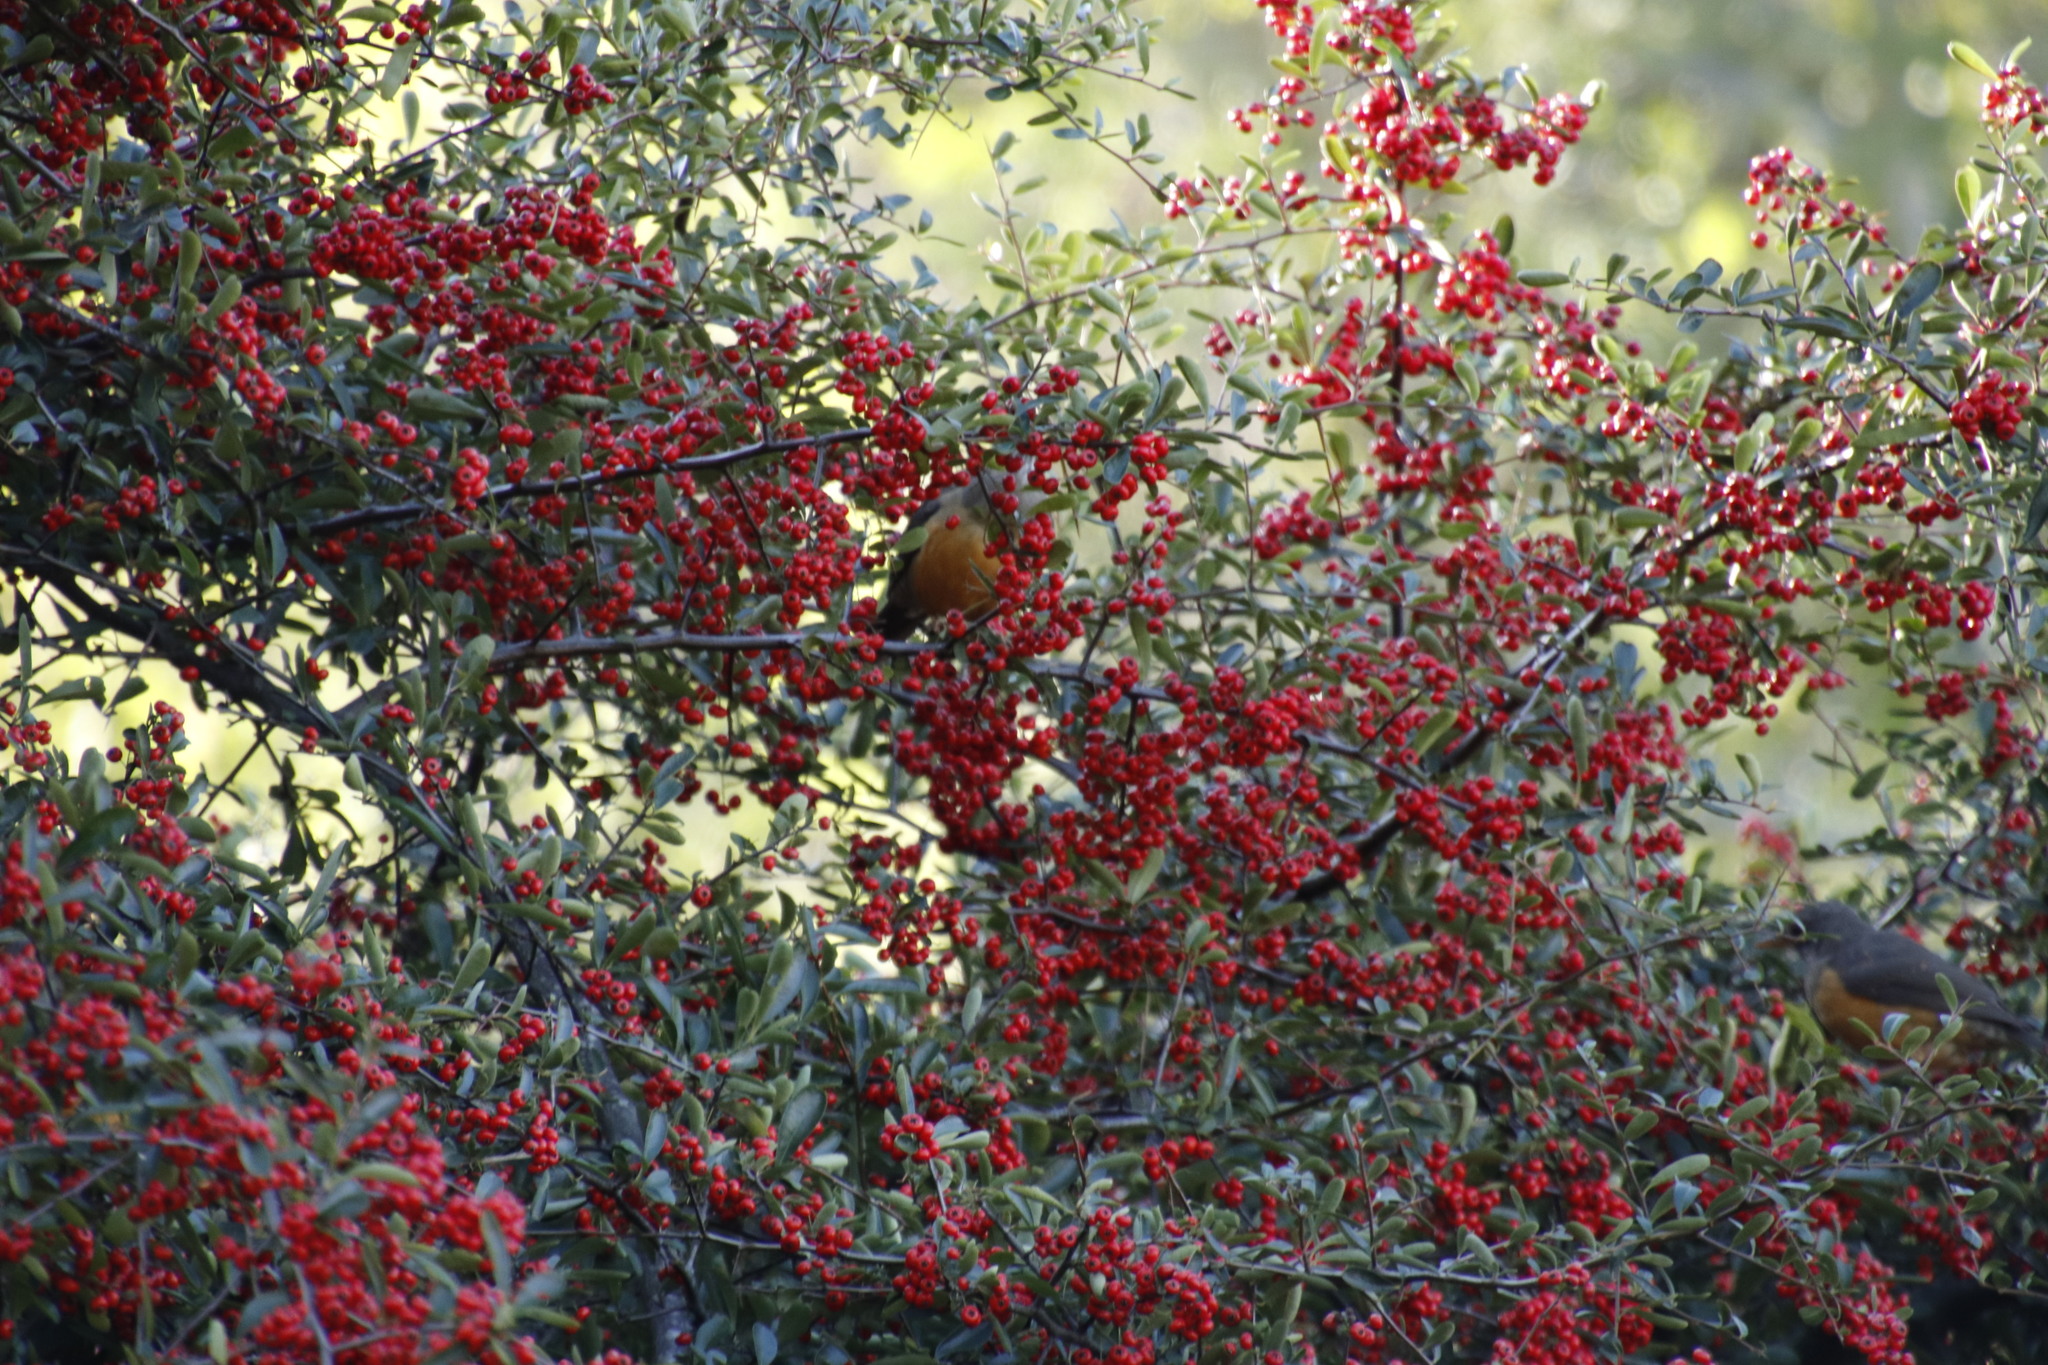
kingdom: Animalia
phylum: Chordata
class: Aves
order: Passeriformes
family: Turdidae
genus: Turdus
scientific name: Turdus olivaceus
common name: Olive thrush
